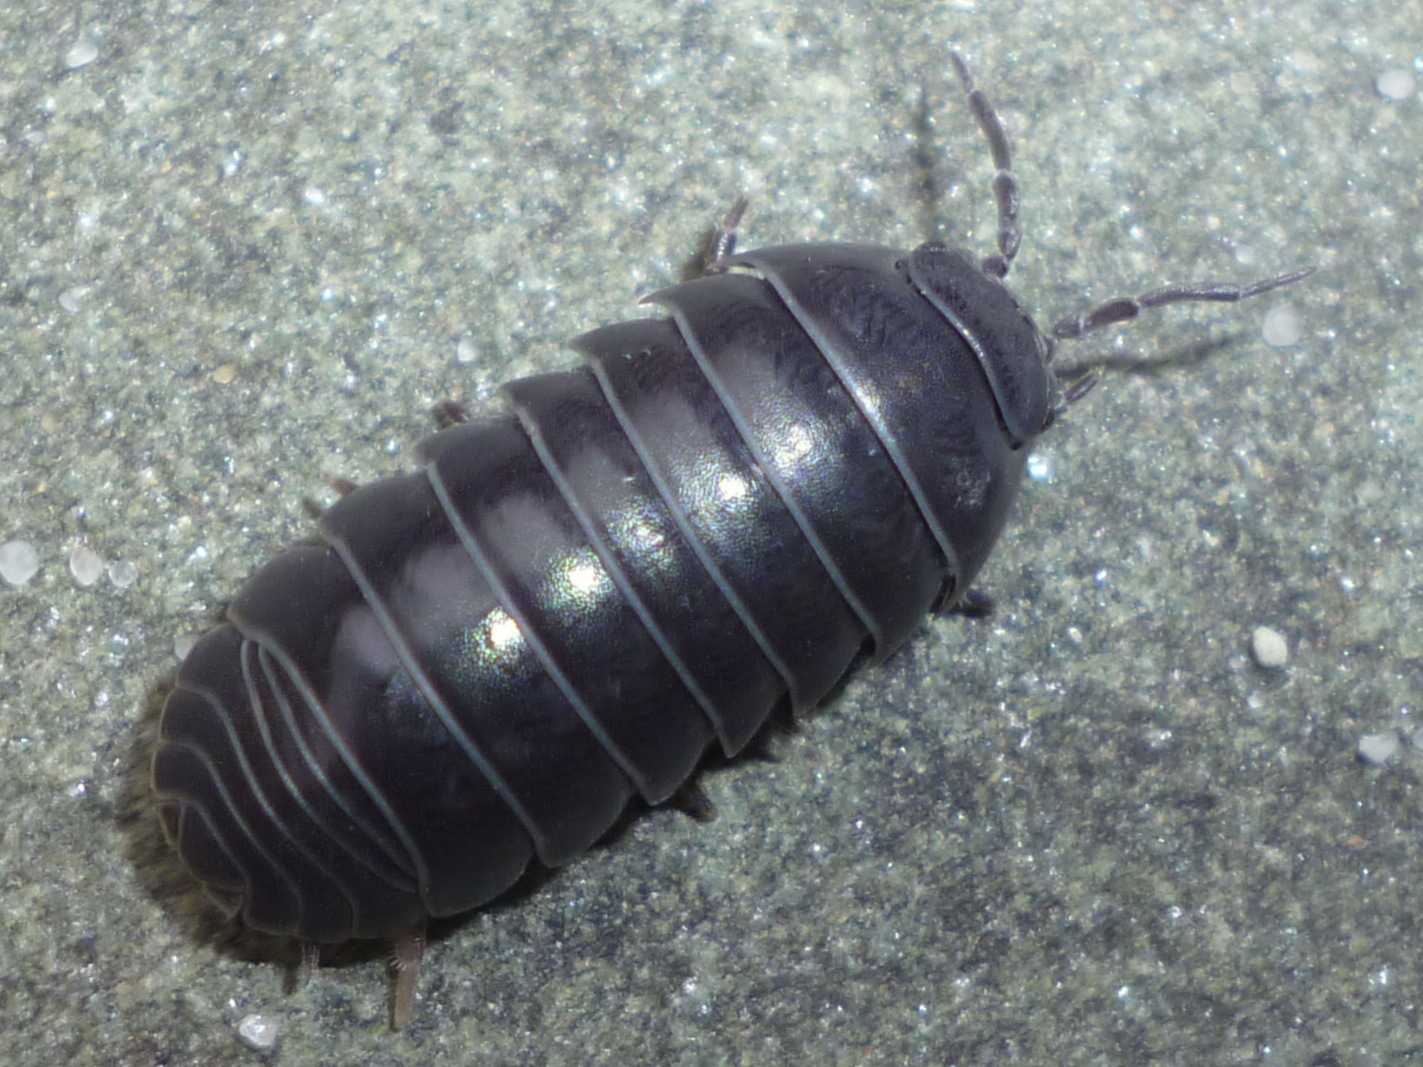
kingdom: Animalia
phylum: Arthropoda
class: Malacostraca
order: Isopoda
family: Armadillidiidae
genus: Armadillidium
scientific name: Armadillidium vulgare
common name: Common pill woodlouse
